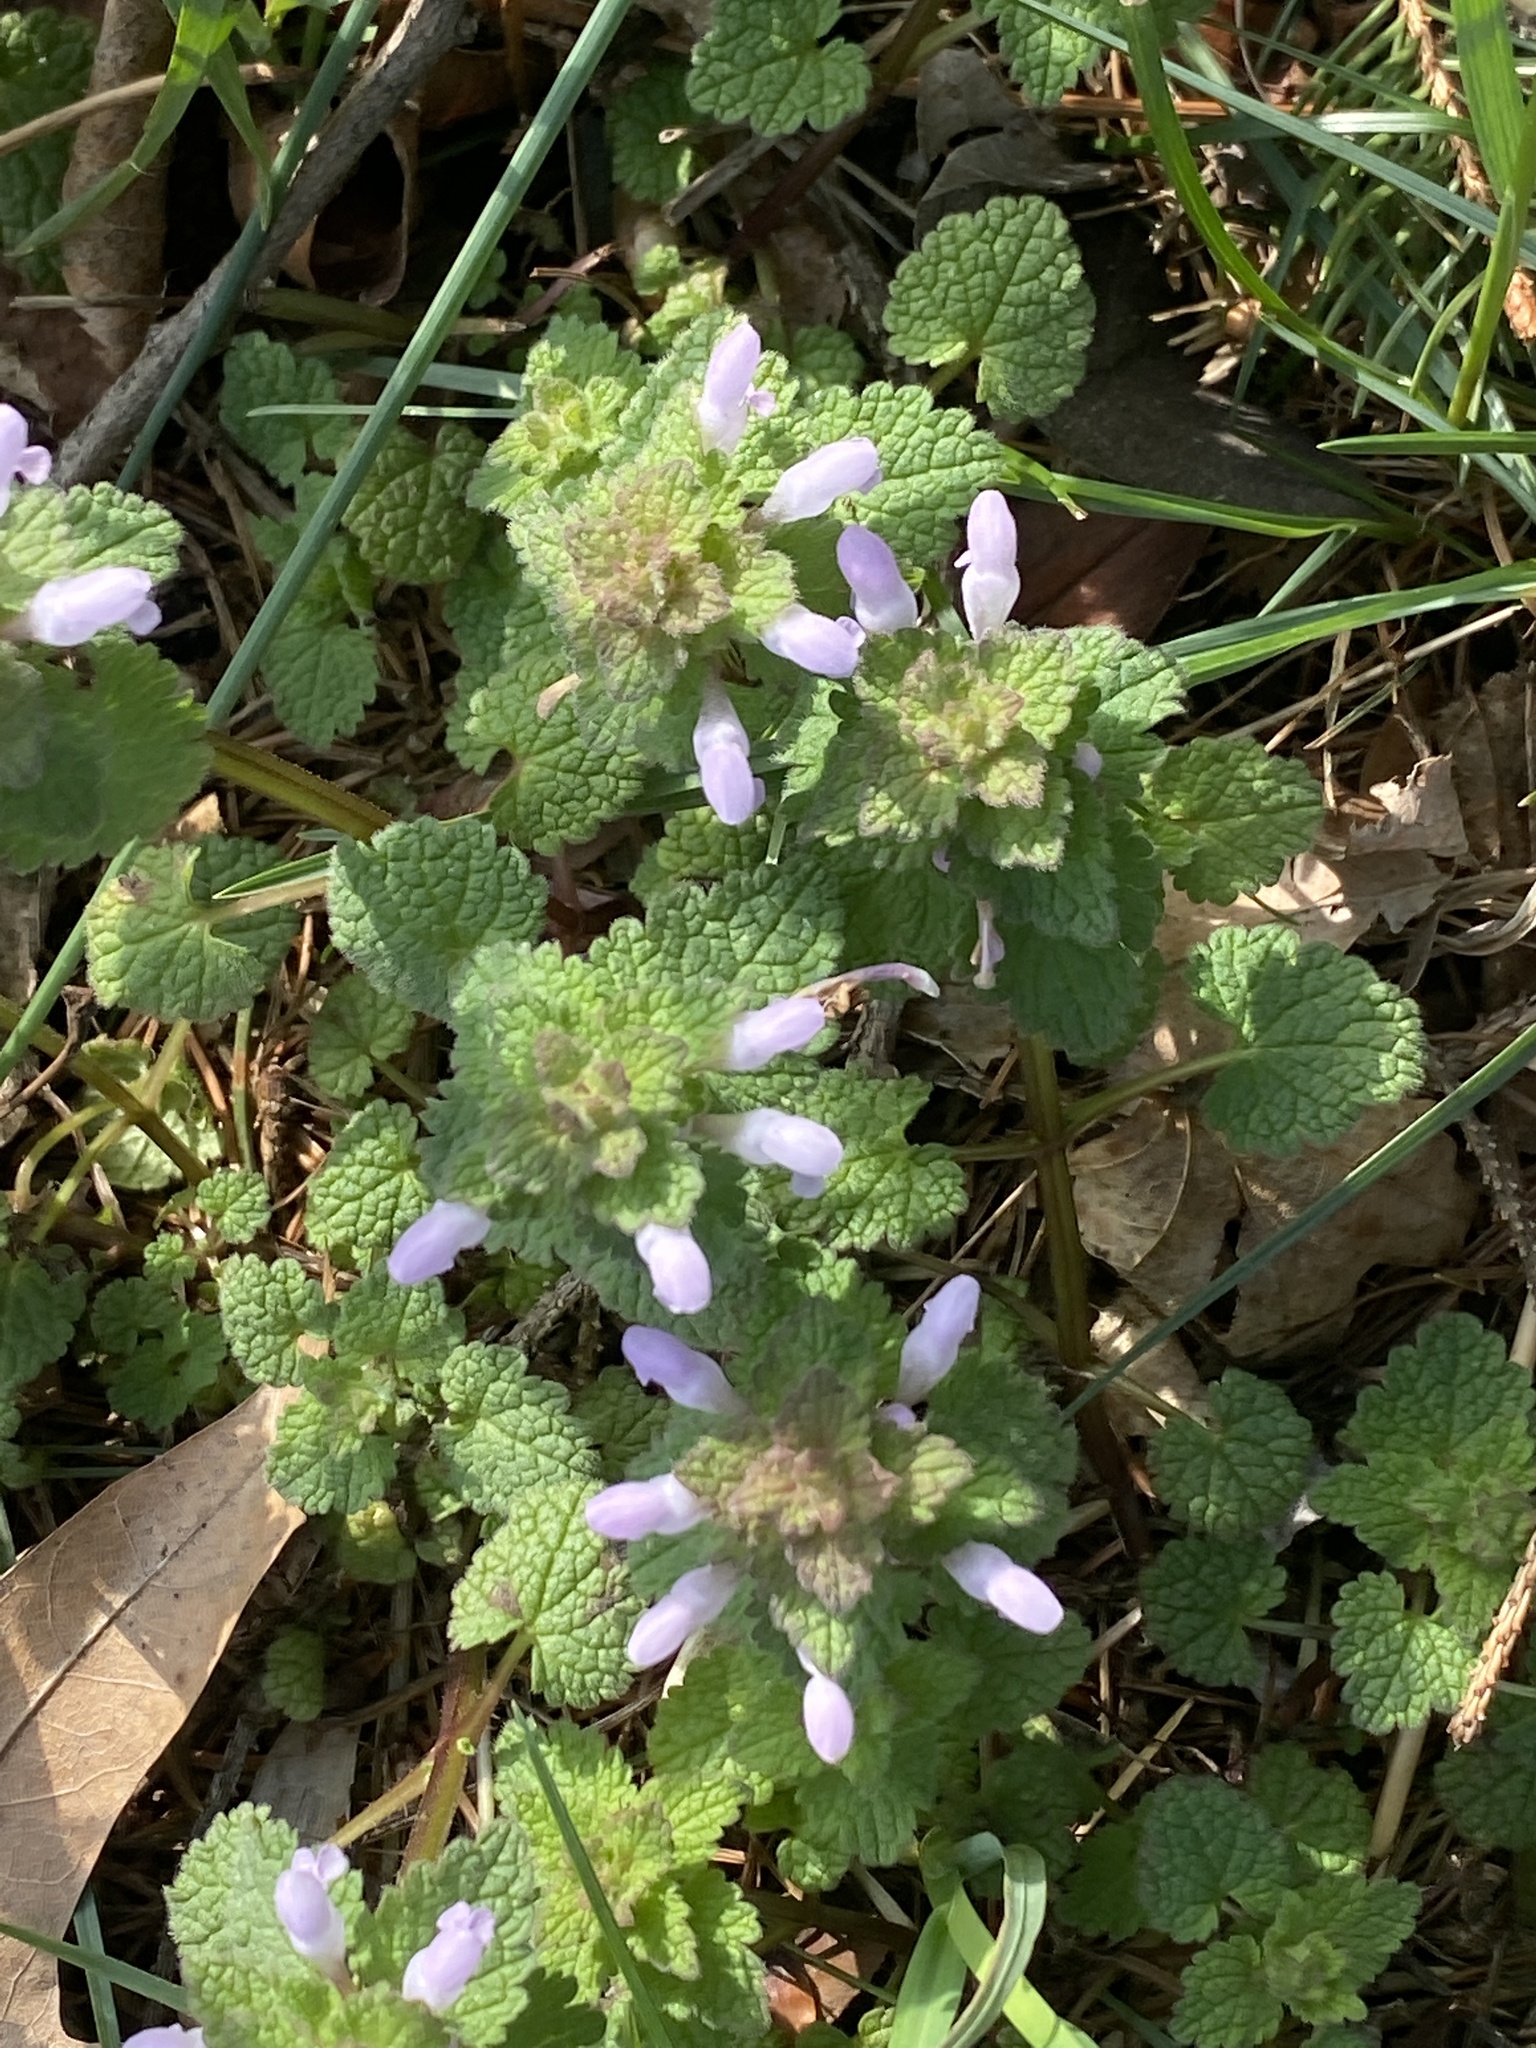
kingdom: Plantae
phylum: Tracheophyta
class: Magnoliopsida
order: Lamiales
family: Lamiaceae
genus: Lamium
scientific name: Lamium purpureum
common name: Red dead-nettle
